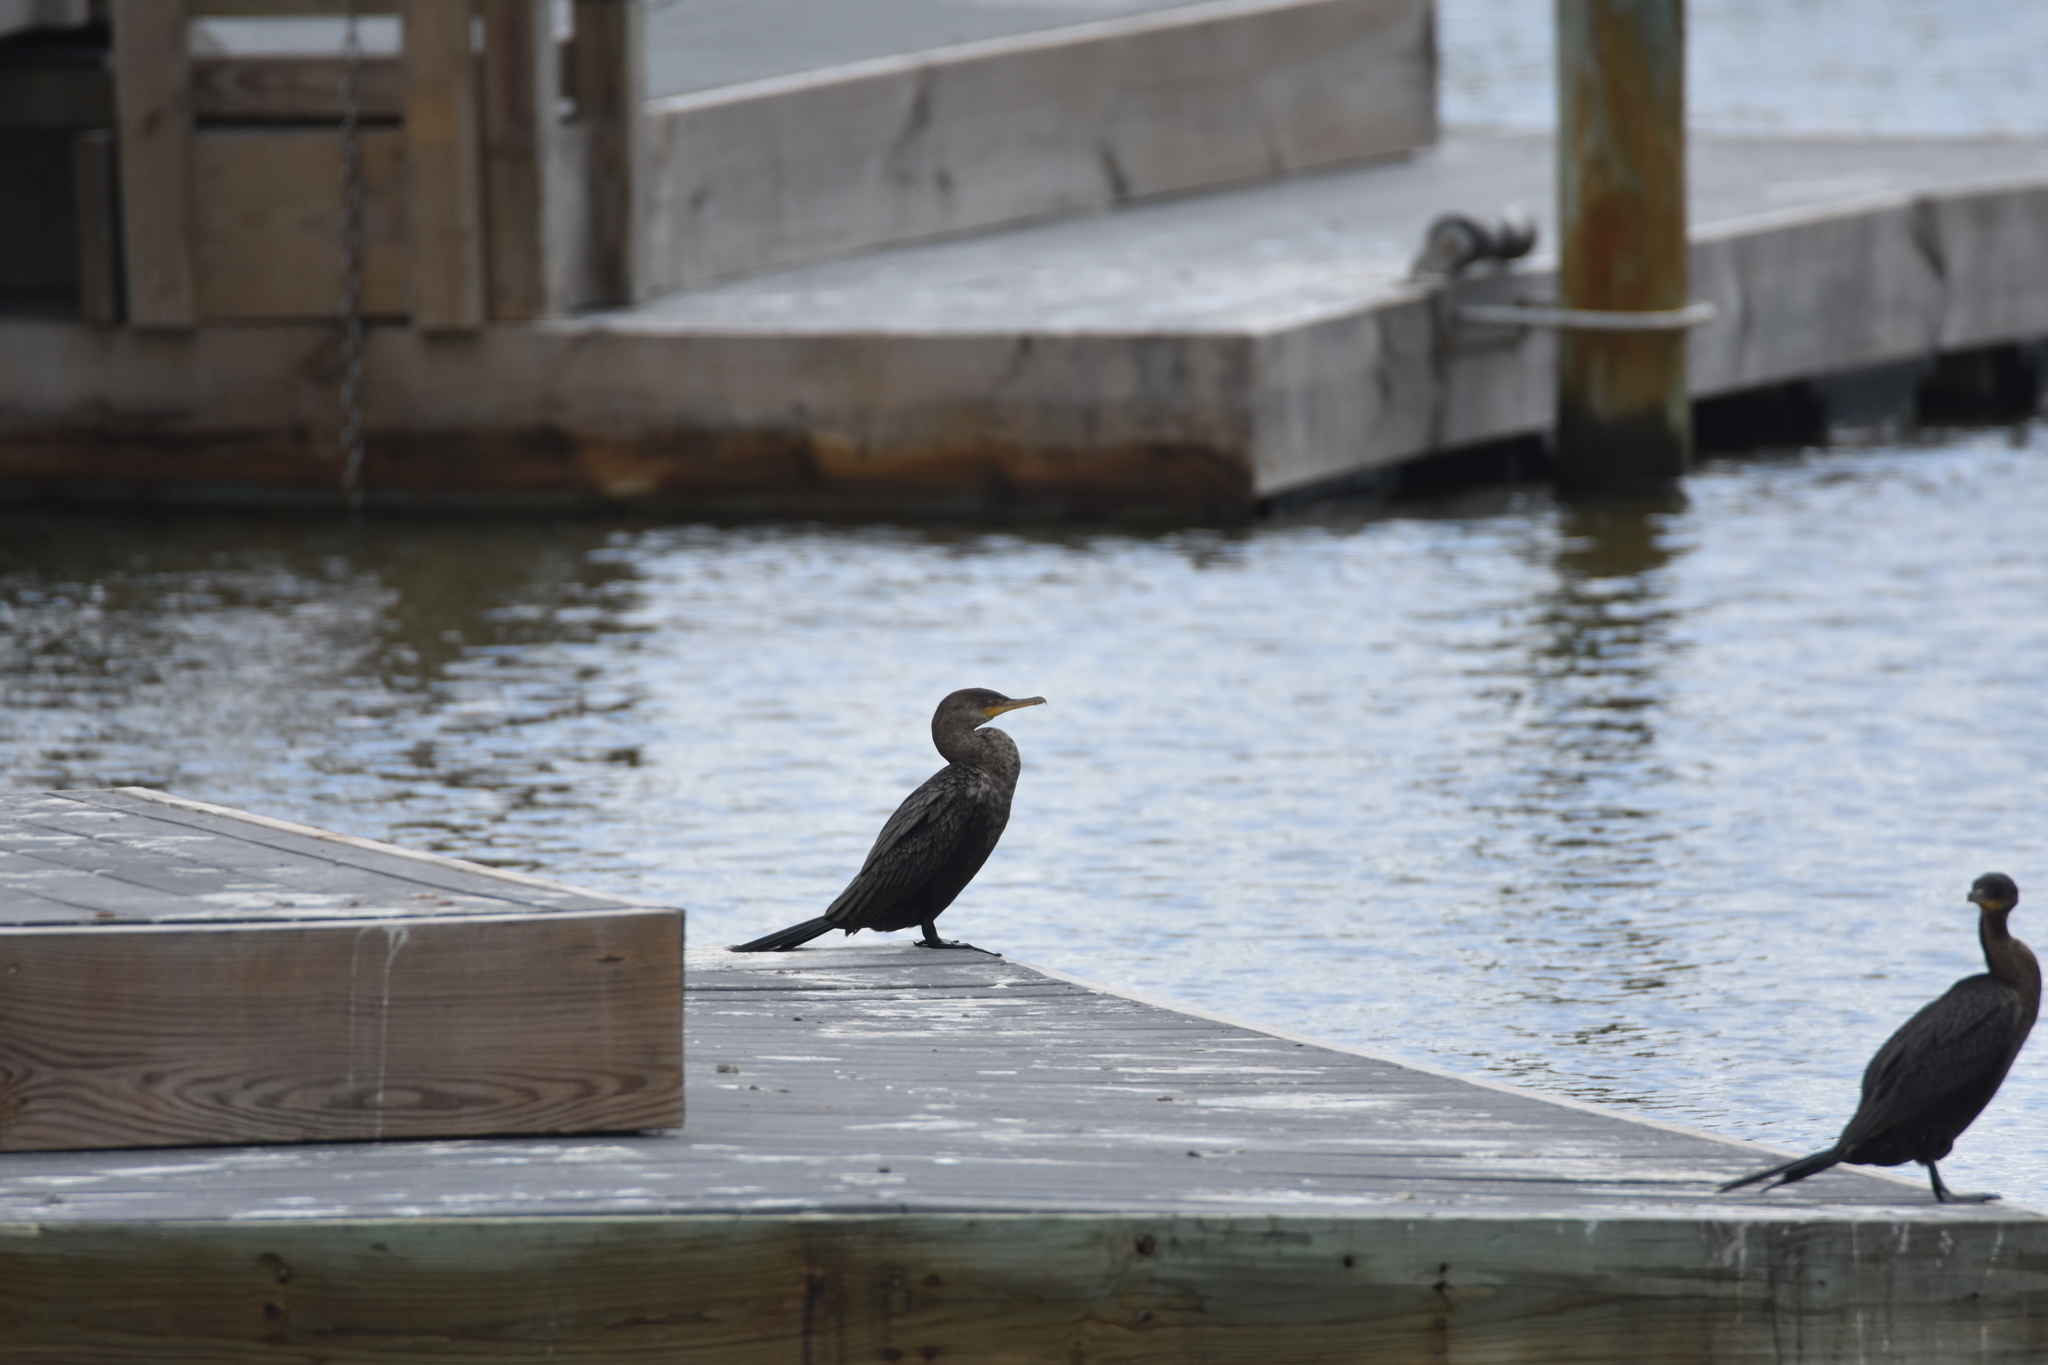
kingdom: Animalia
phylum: Chordata
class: Aves
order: Suliformes
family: Phalacrocoracidae
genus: Phalacrocorax
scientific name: Phalacrocorax brasilianus
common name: Neotropic cormorant
